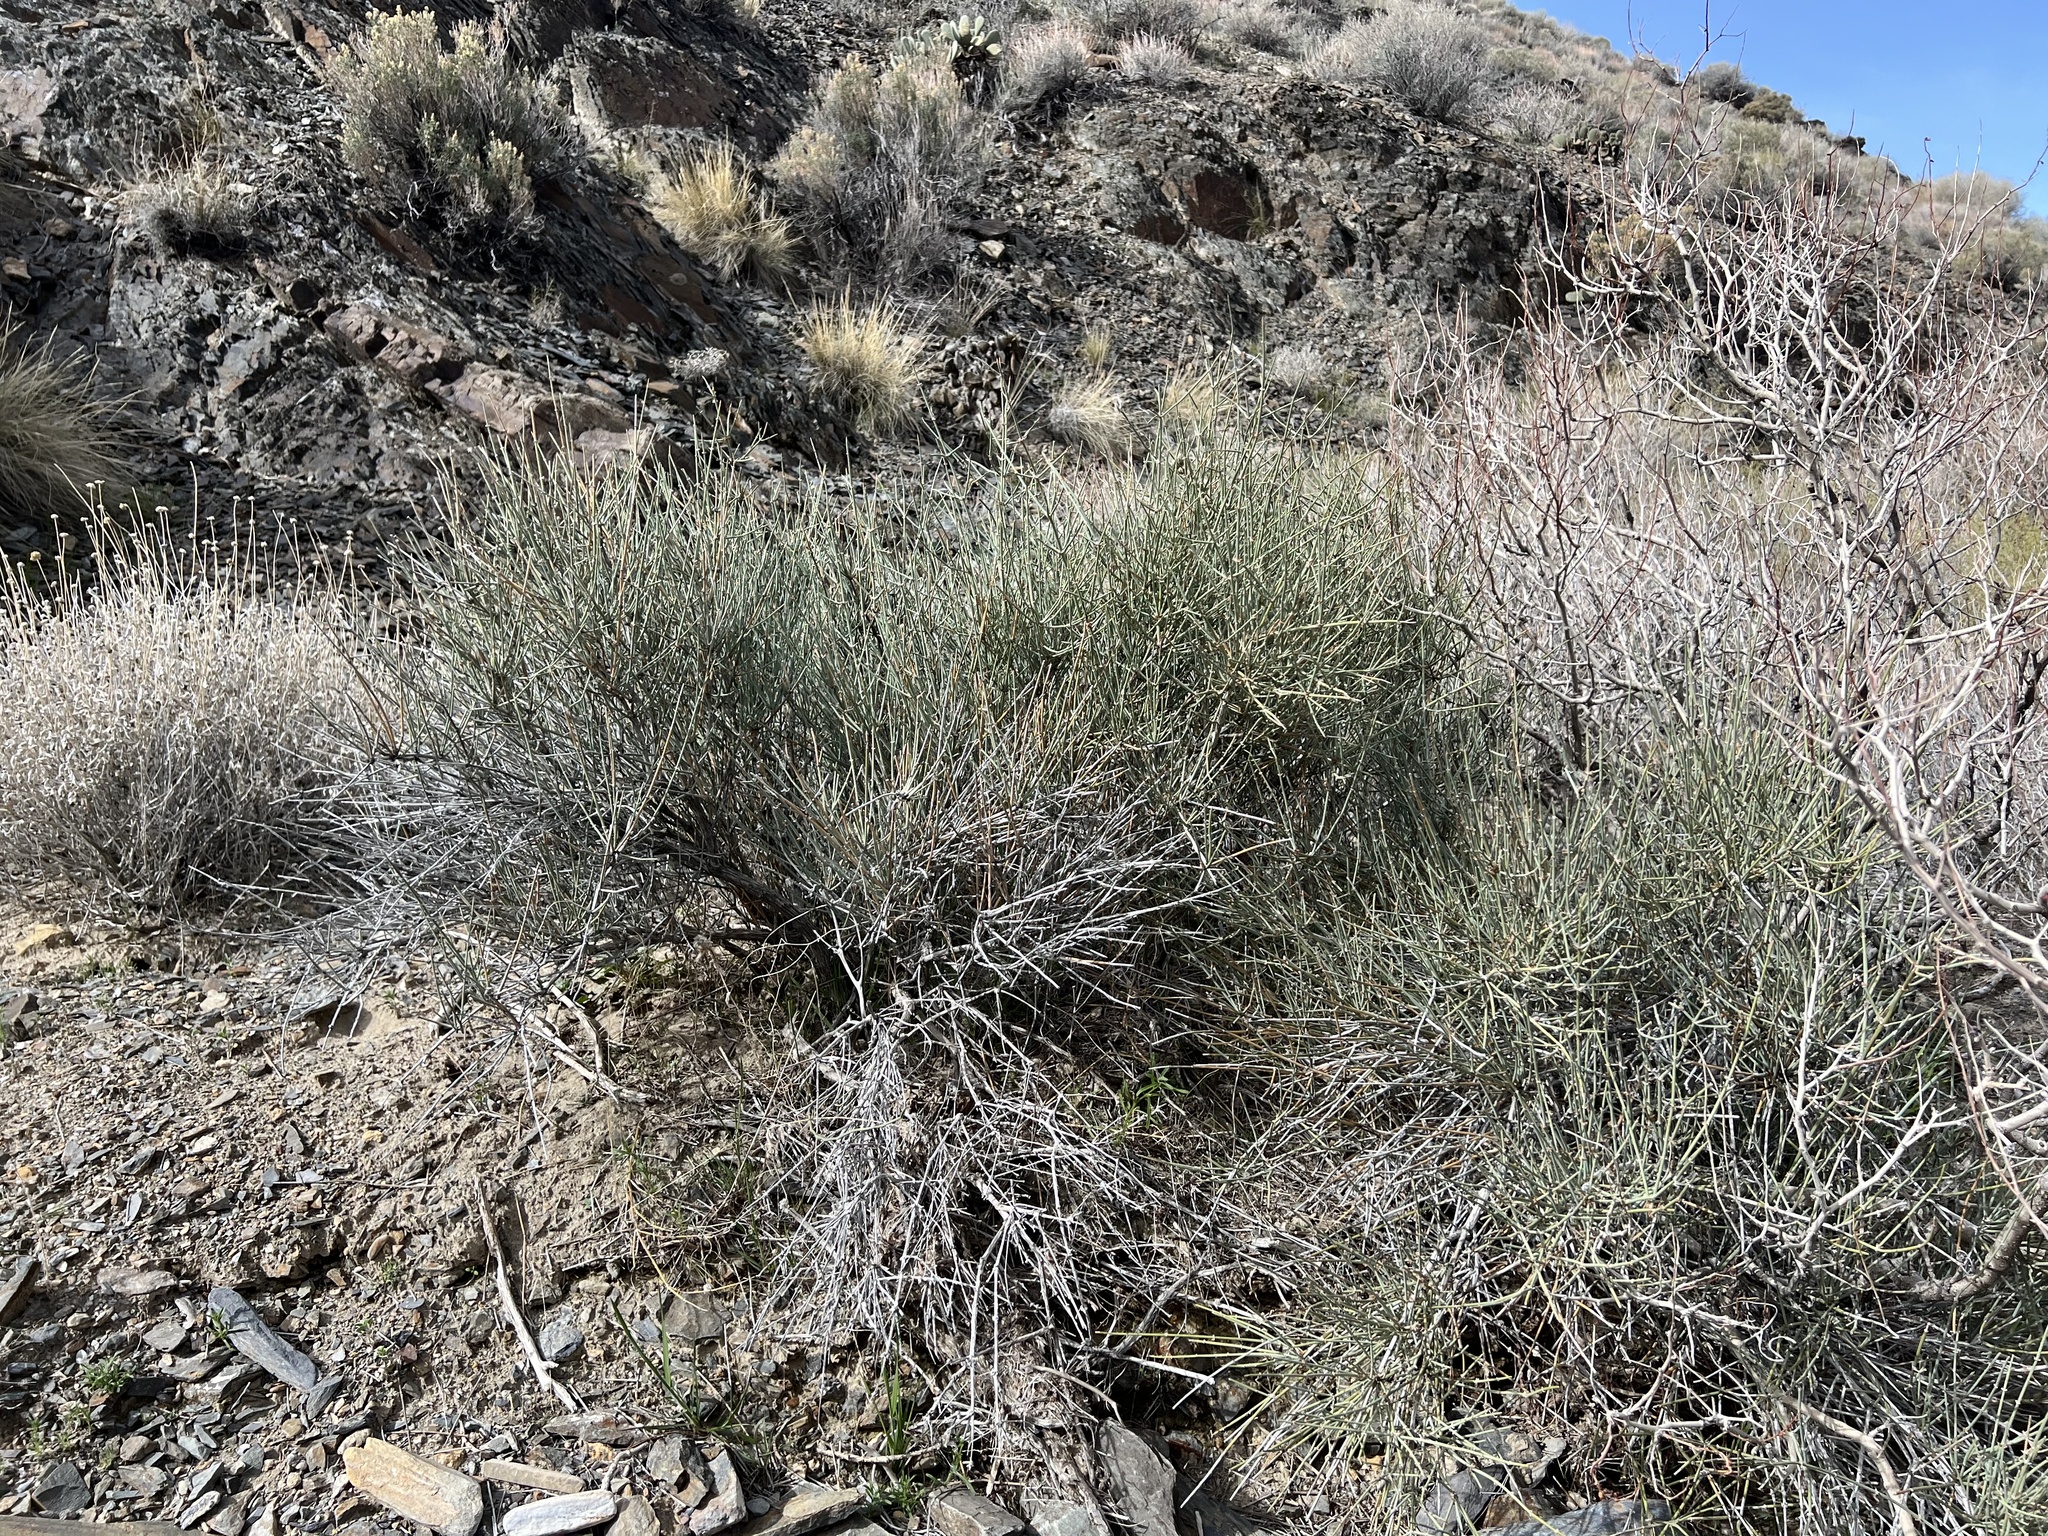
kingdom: Plantae
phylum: Tracheophyta
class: Gnetopsida
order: Ephedrales
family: Ephedraceae
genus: Ephedra
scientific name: Ephedra nevadensis
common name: Gray ephedra
